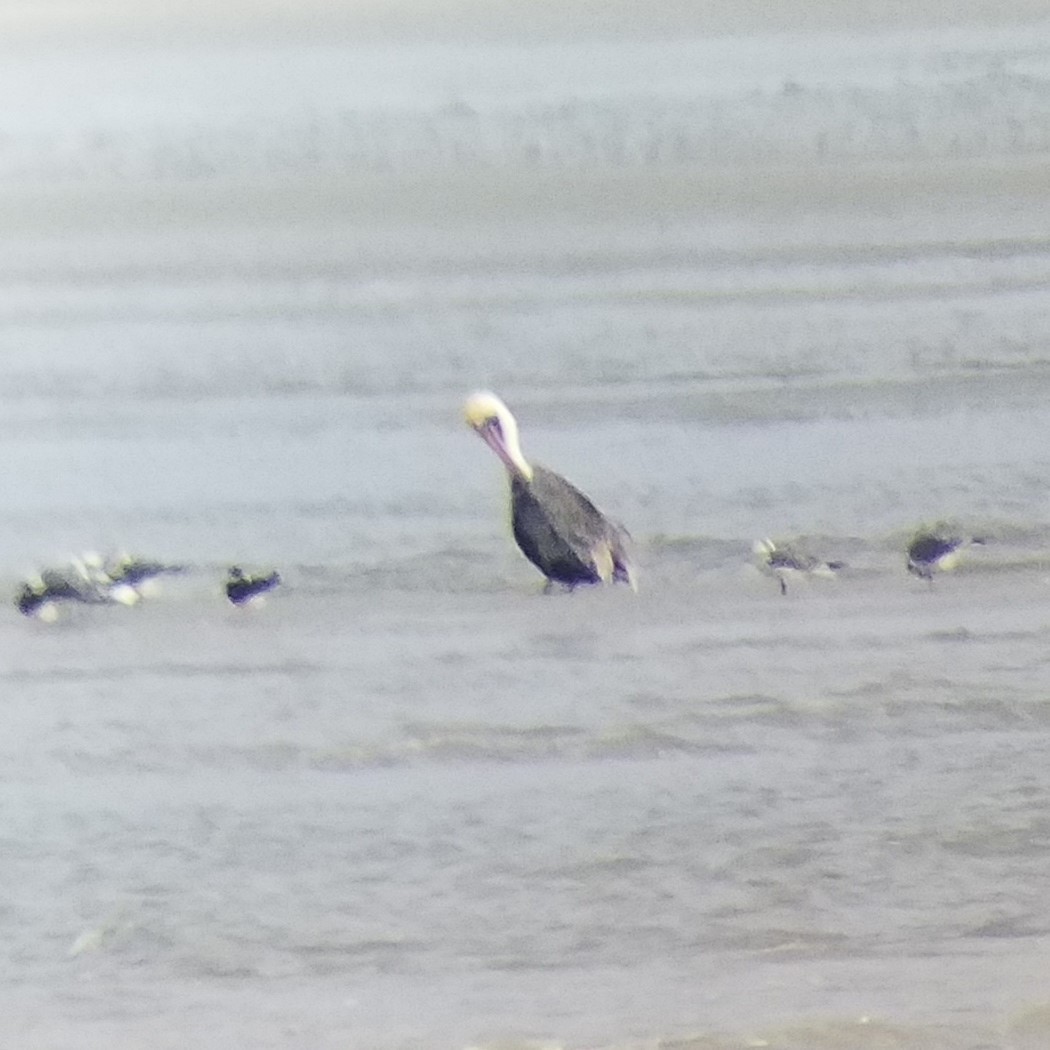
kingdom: Animalia
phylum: Chordata
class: Aves
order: Pelecaniformes
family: Pelecanidae
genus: Pelecanus
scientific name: Pelecanus occidentalis
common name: Brown pelican
